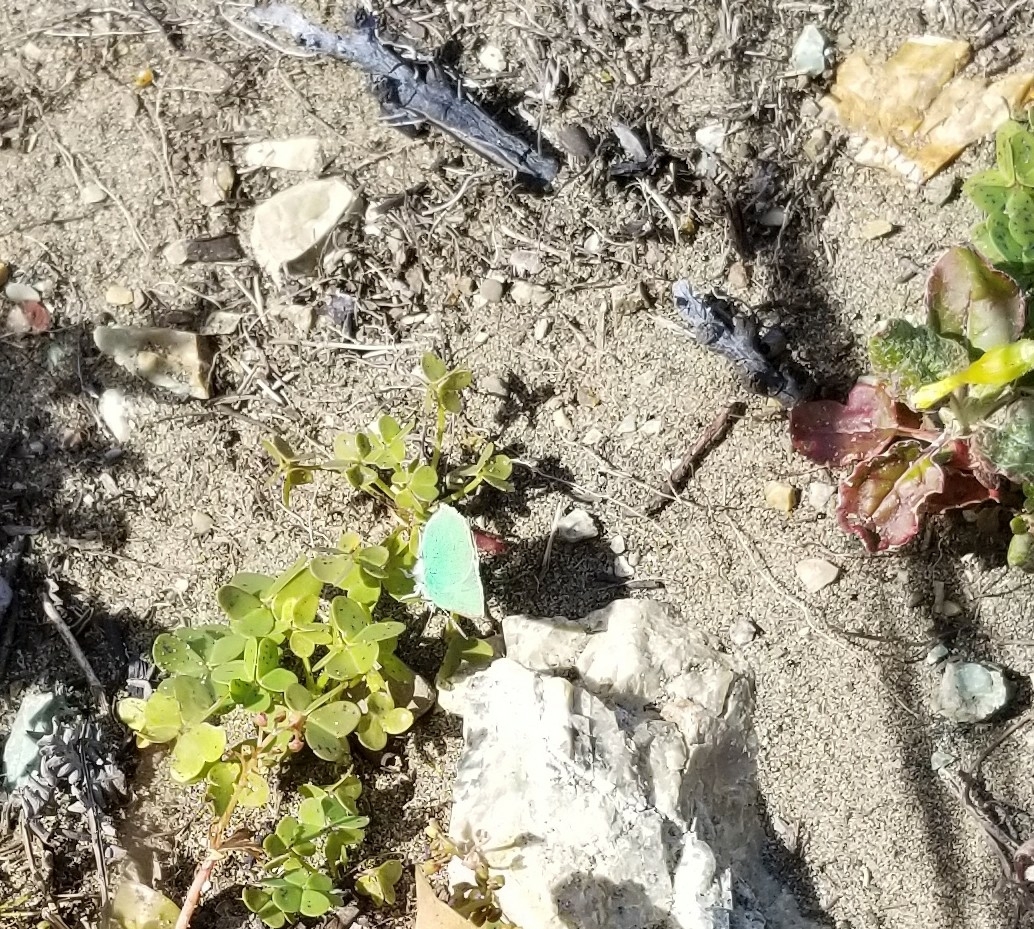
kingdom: Animalia
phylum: Arthropoda
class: Insecta
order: Lepidoptera
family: Lycaenidae
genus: Callophrys
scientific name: Callophrys viridis
